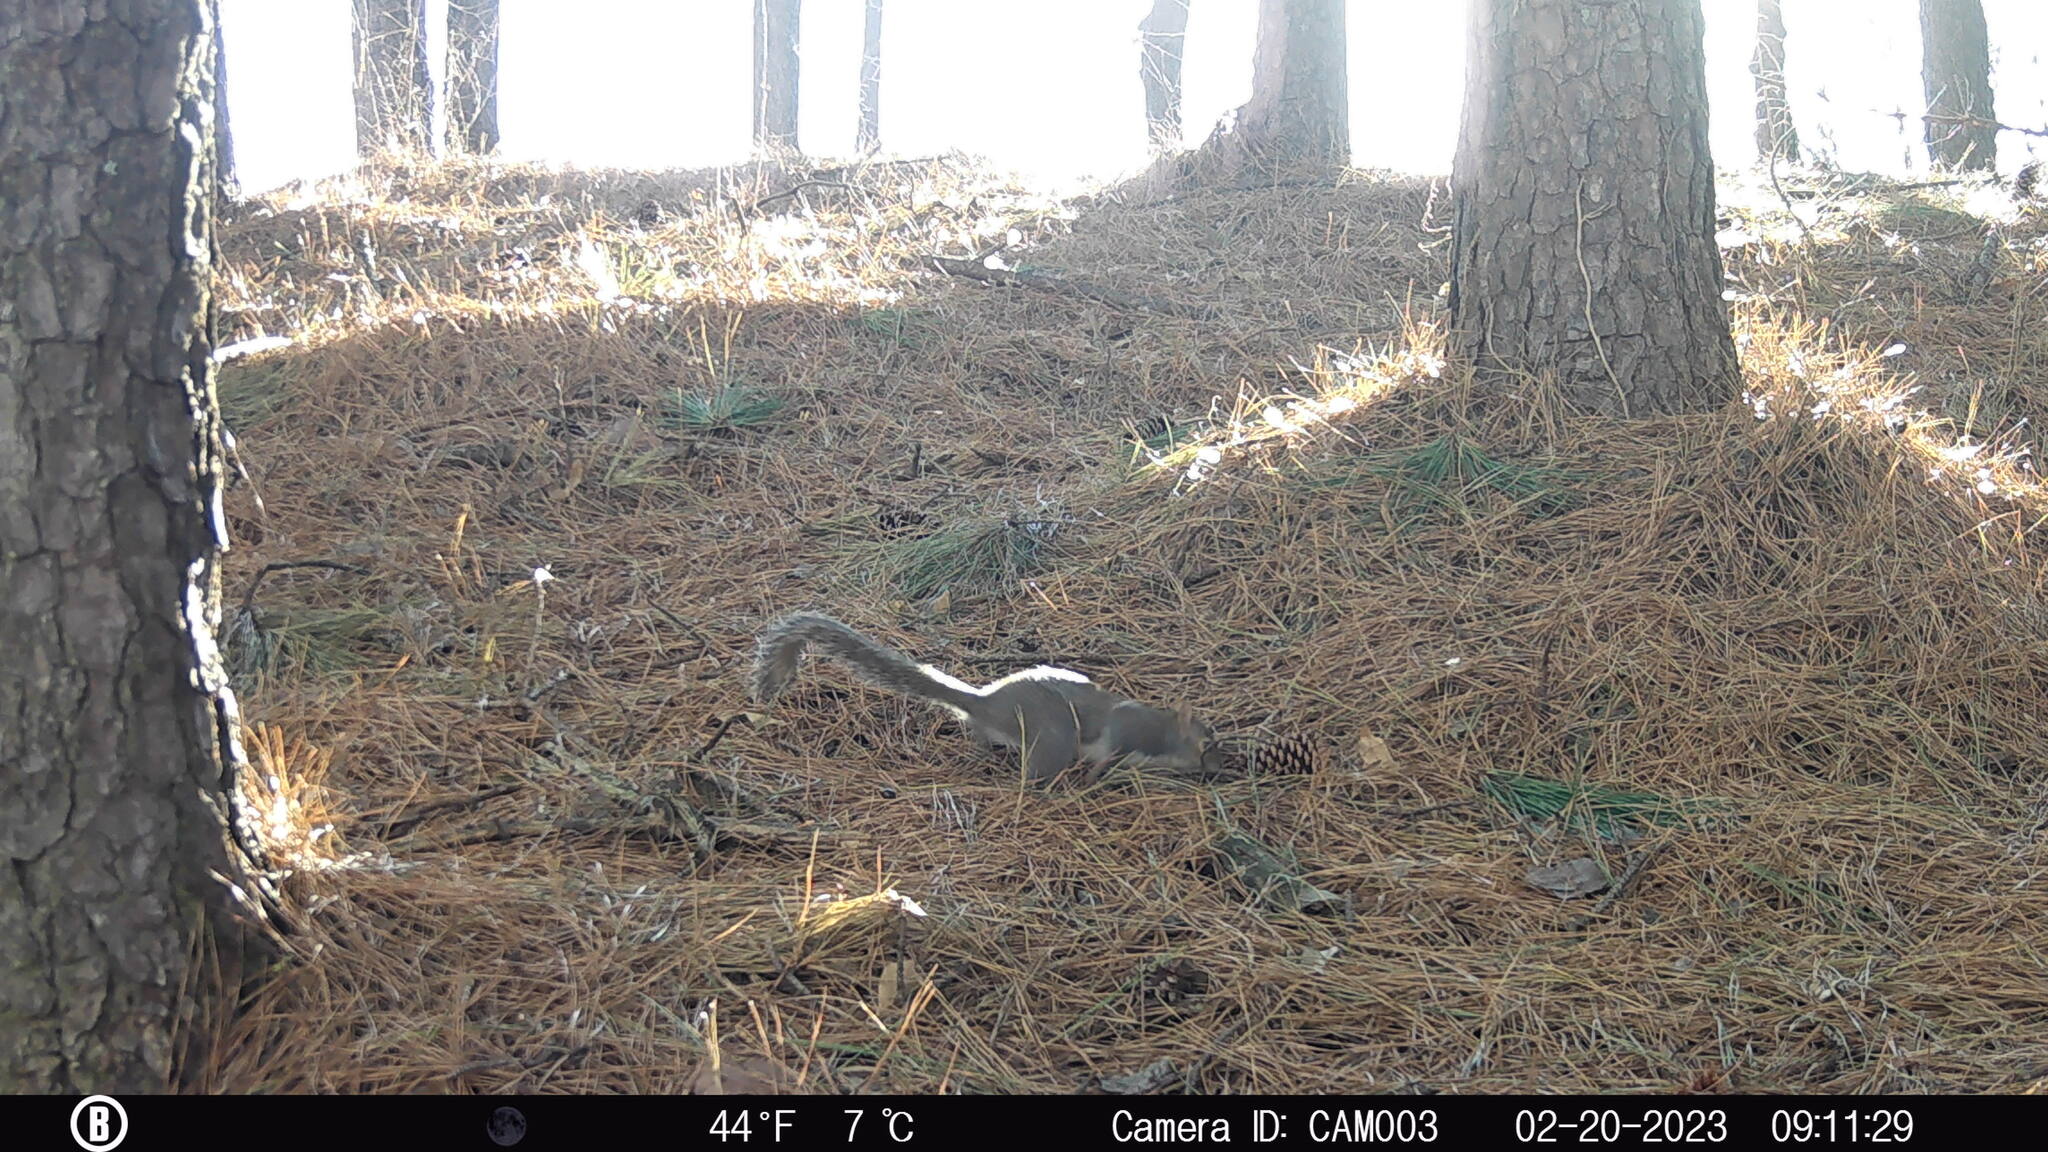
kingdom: Animalia
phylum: Chordata
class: Mammalia
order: Rodentia
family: Sciuridae
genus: Sciurus
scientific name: Sciurus carolinensis
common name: Eastern gray squirrel
